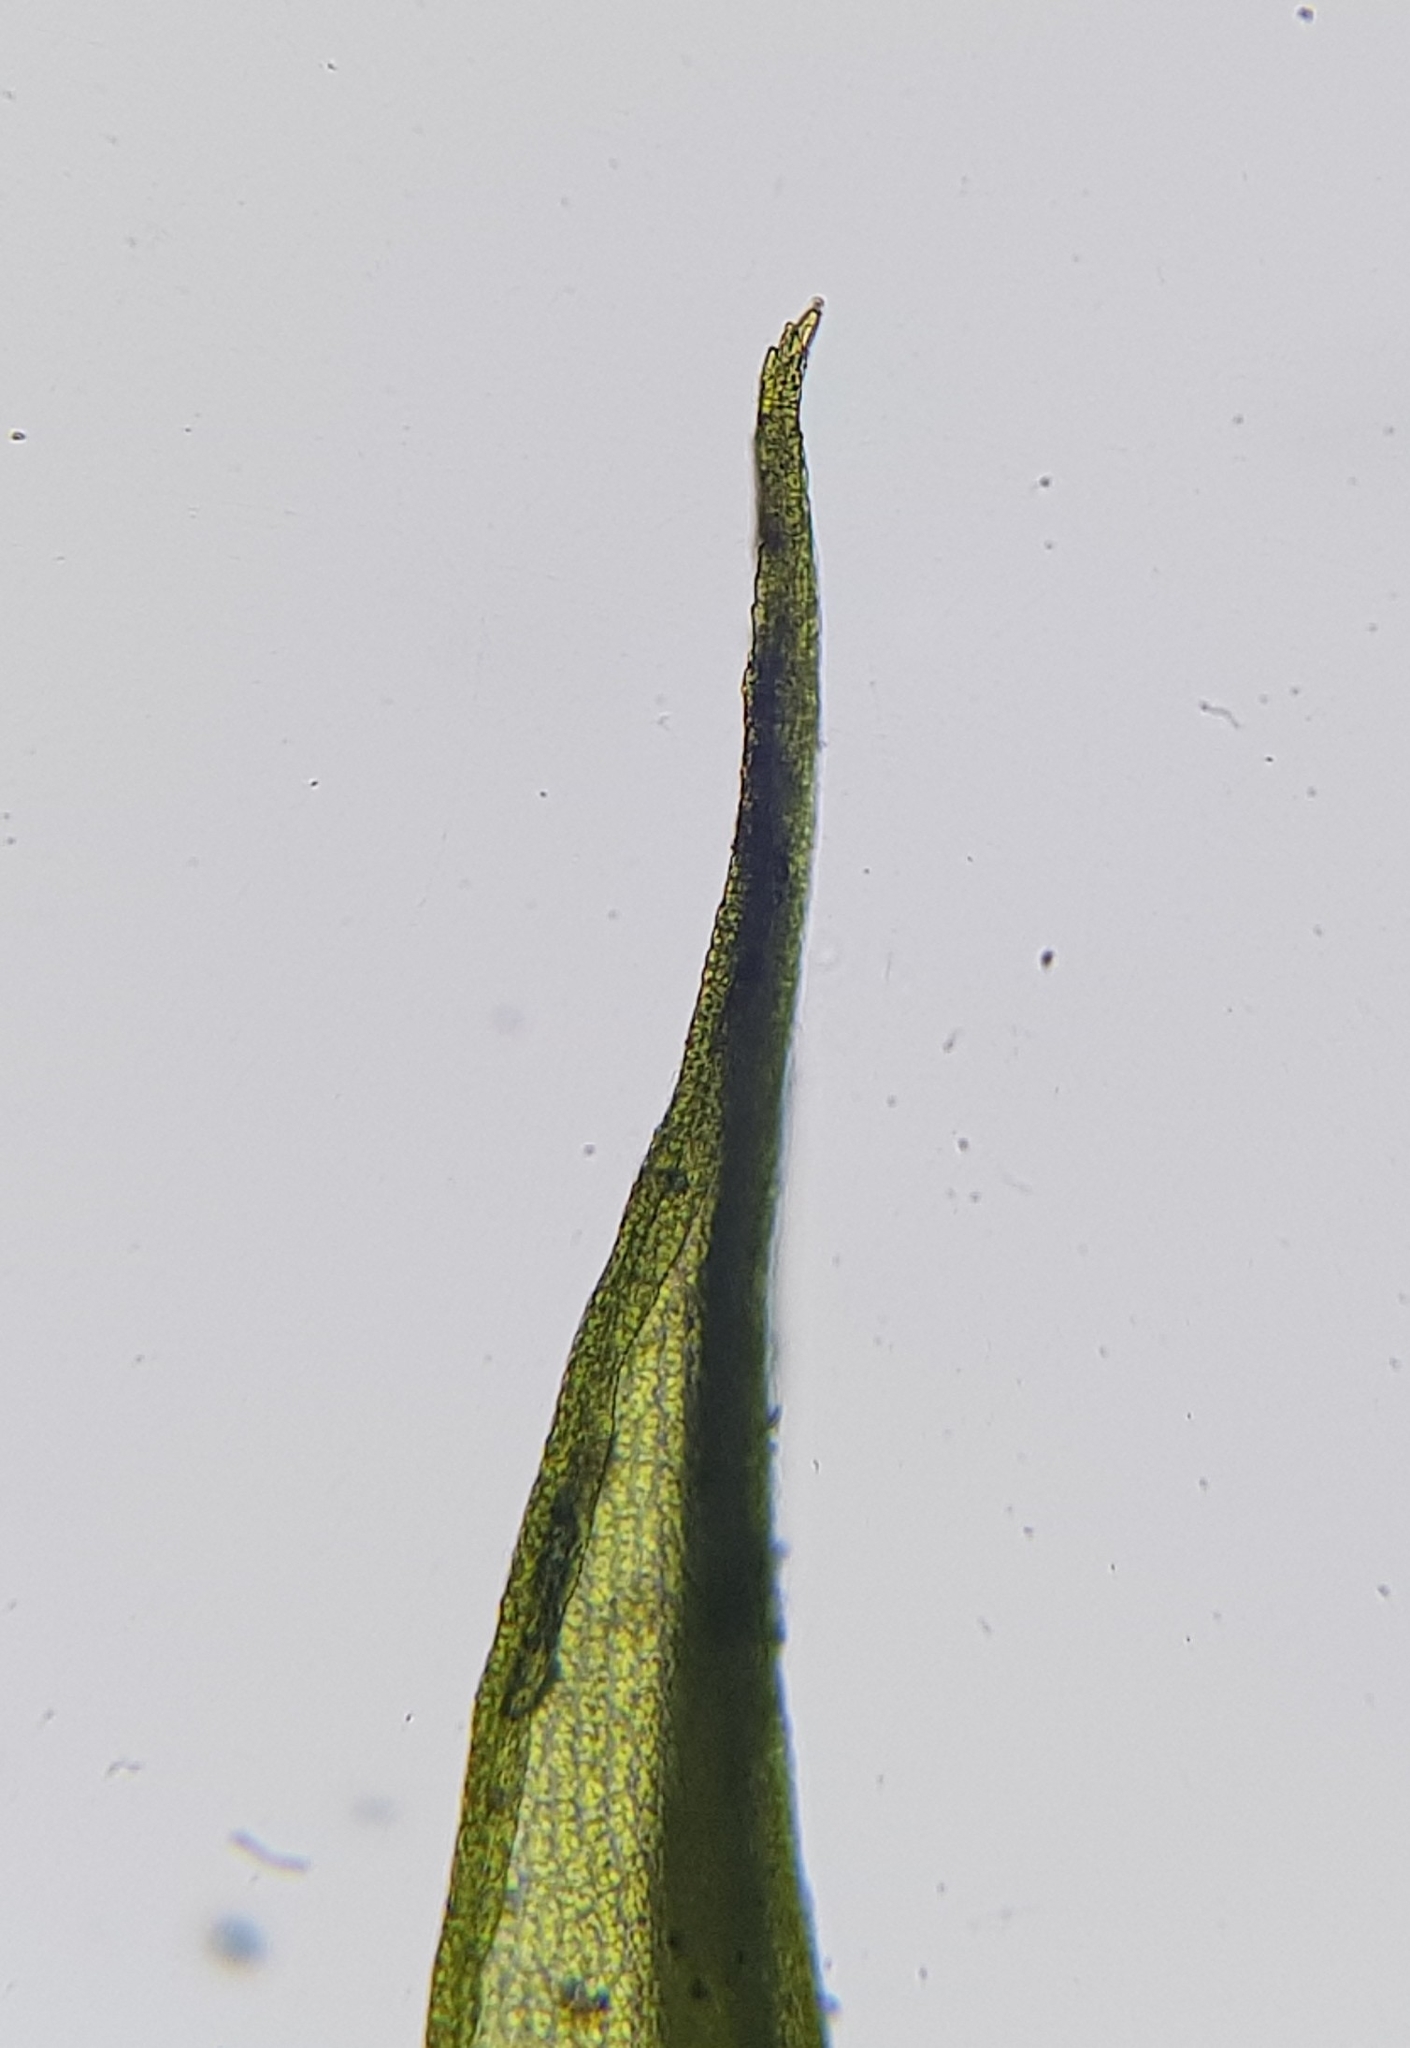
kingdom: Plantae
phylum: Bryophyta
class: Bryopsida
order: Dicranales
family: Ditrichaceae
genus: Ceratodon
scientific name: Ceratodon purpureus
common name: Redshank
